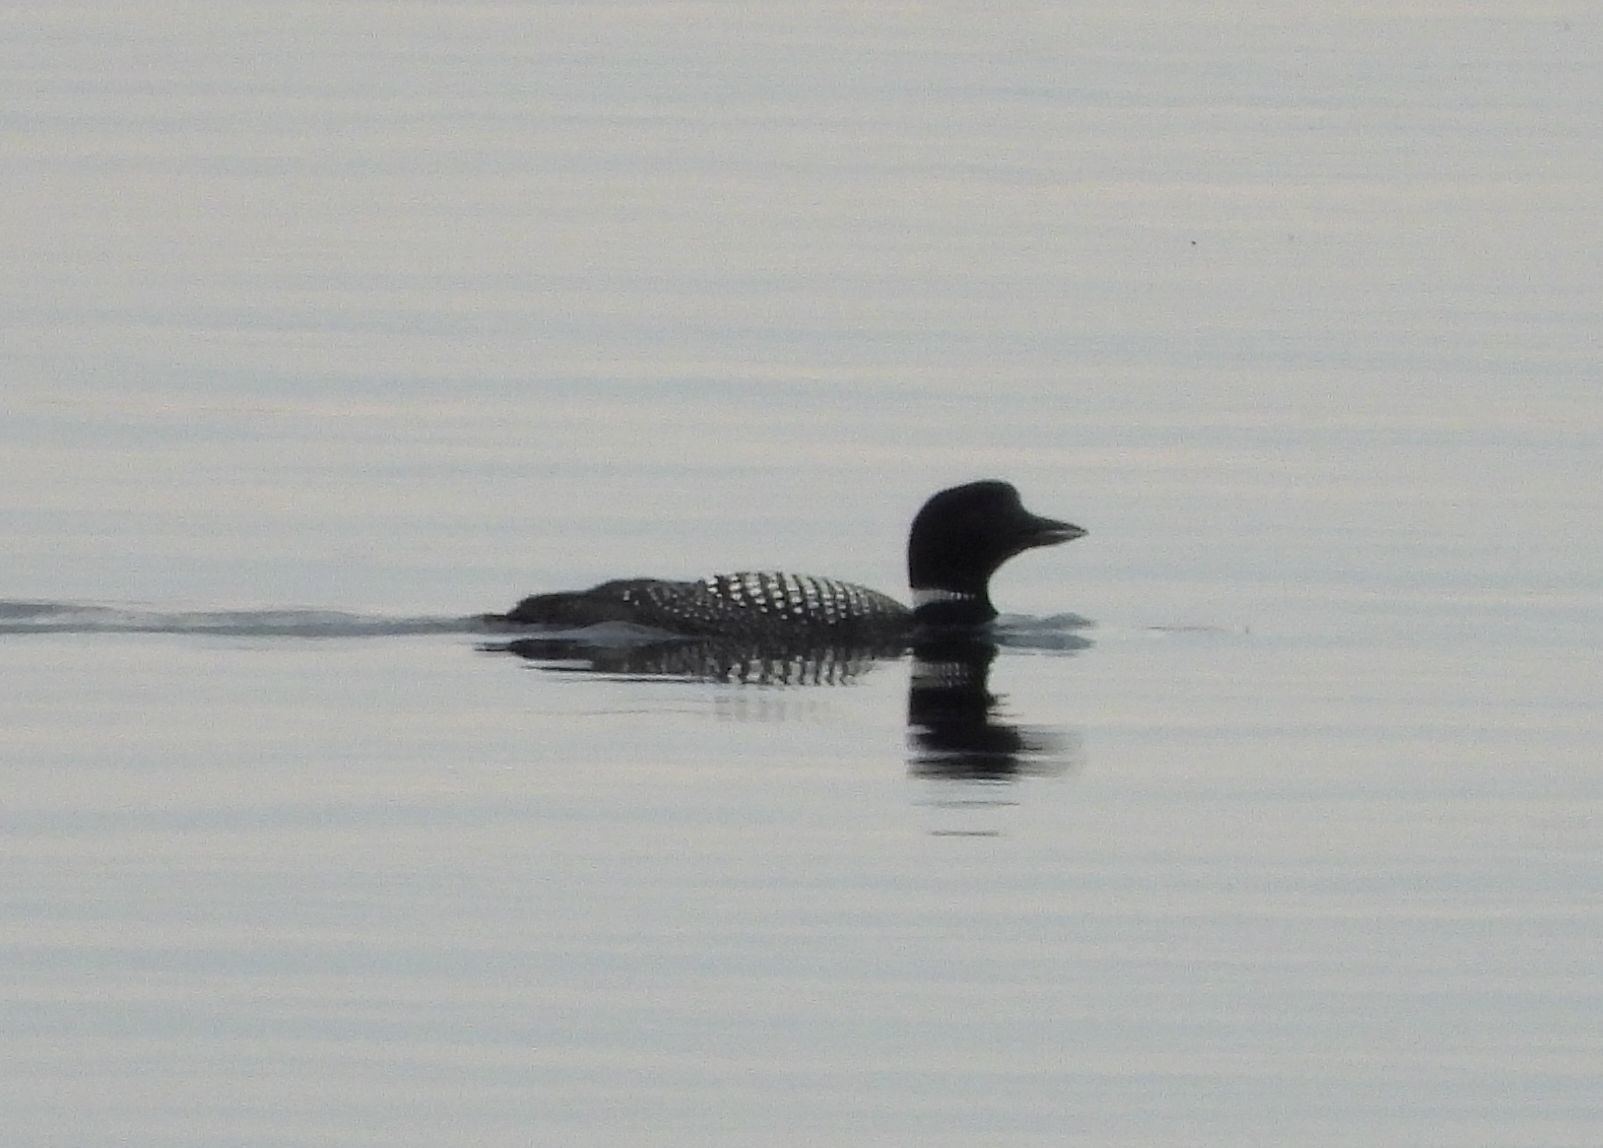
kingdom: Animalia
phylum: Chordata
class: Aves
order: Gaviiformes
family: Gaviidae
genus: Gavia
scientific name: Gavia immer
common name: Common loon
